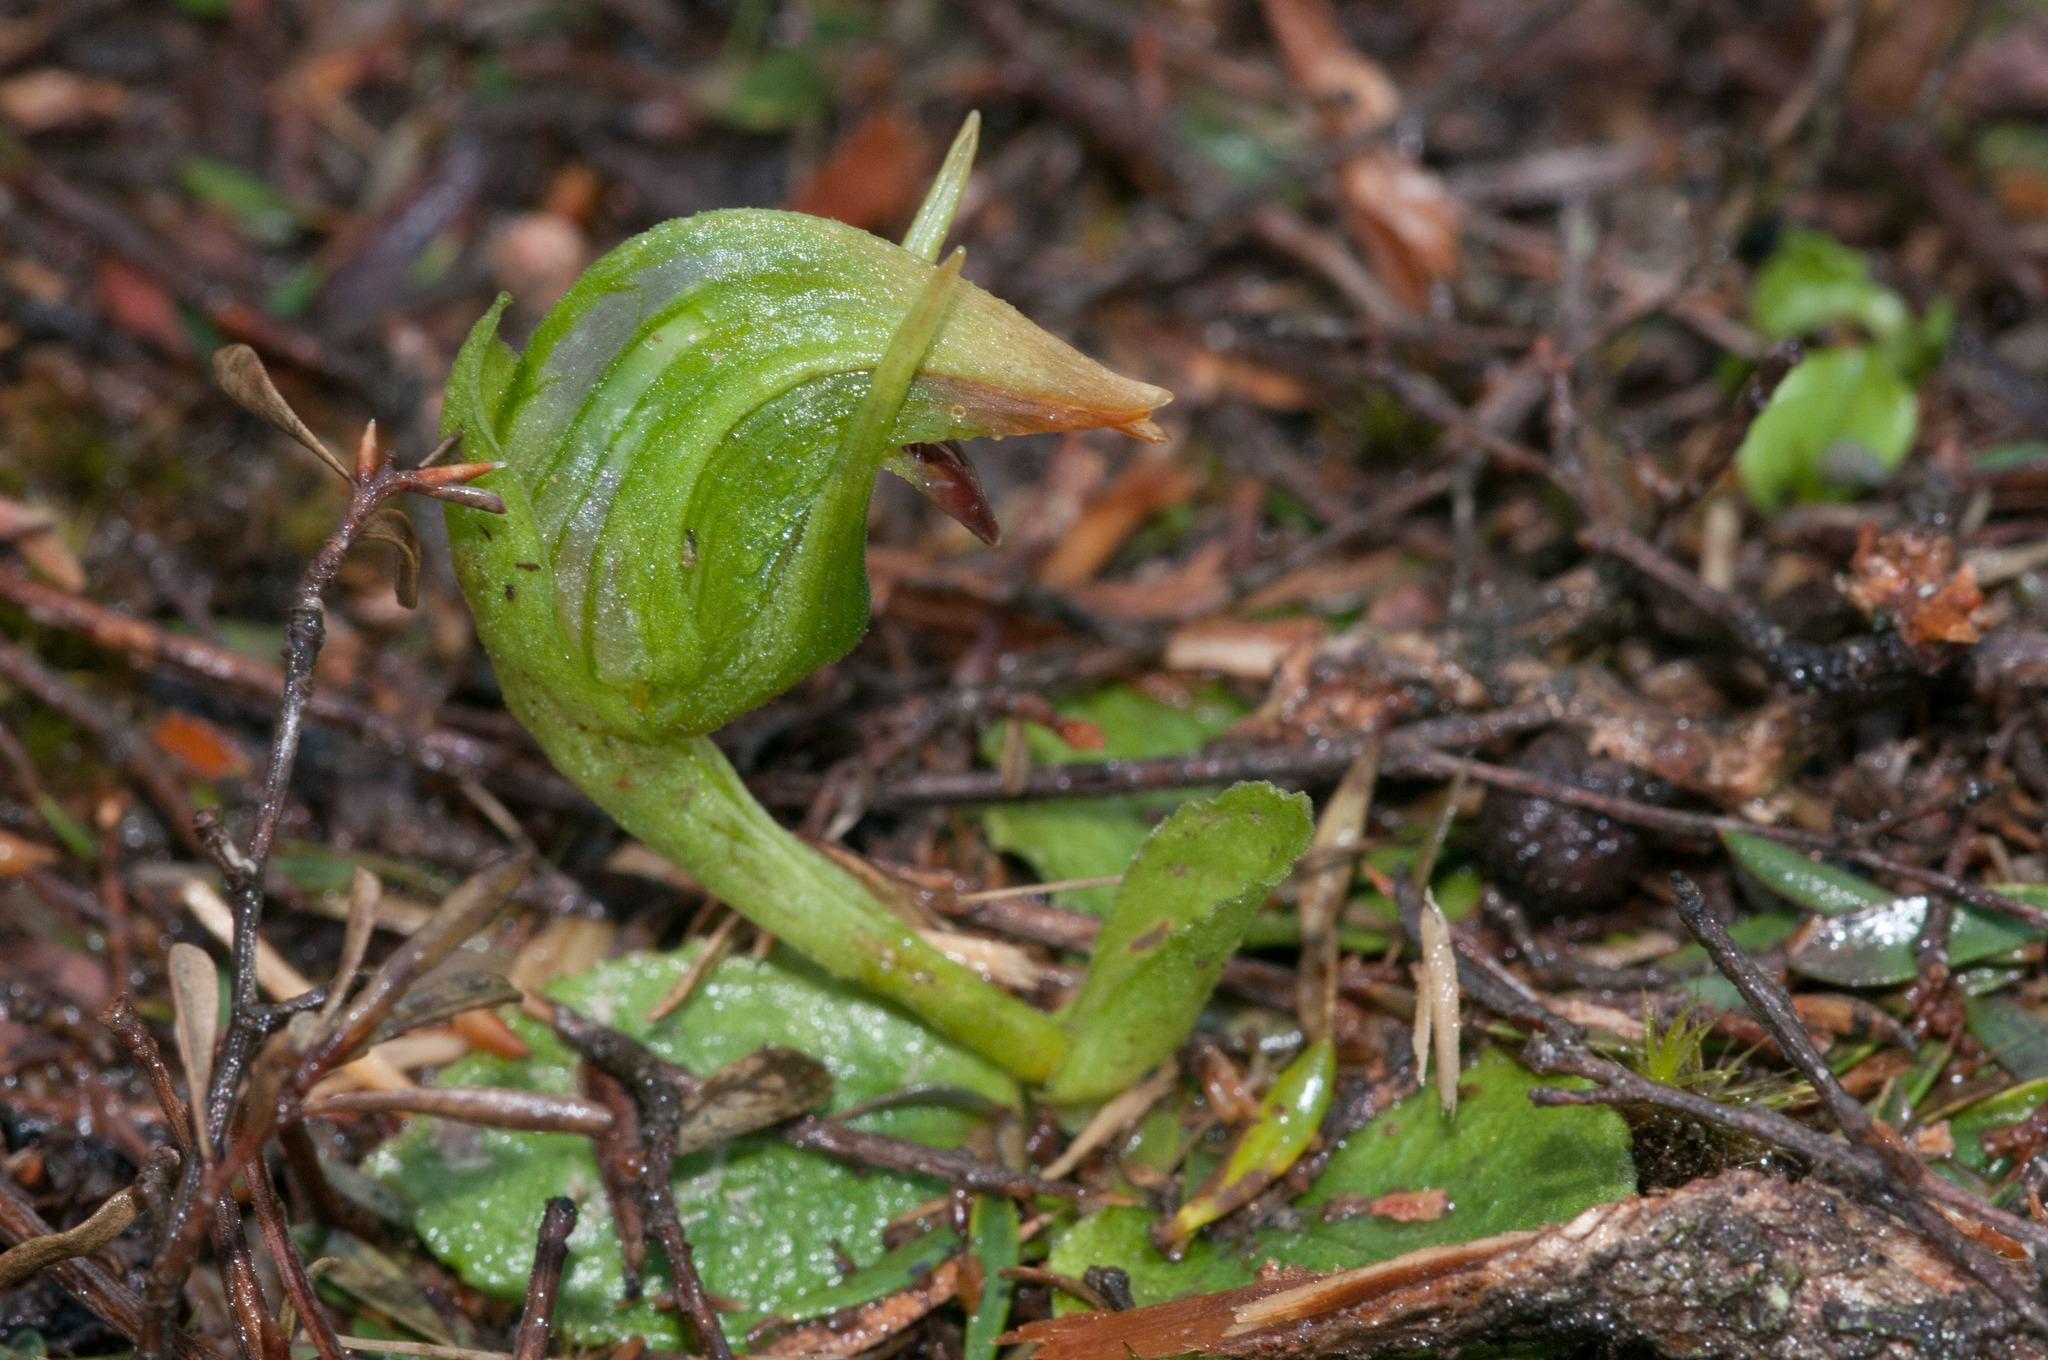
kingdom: Plantae
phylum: Tracheophyta
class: Liliopsida
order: Asparagales
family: Orchidaceae
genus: Pterostylis
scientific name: Pterostylis nutans
